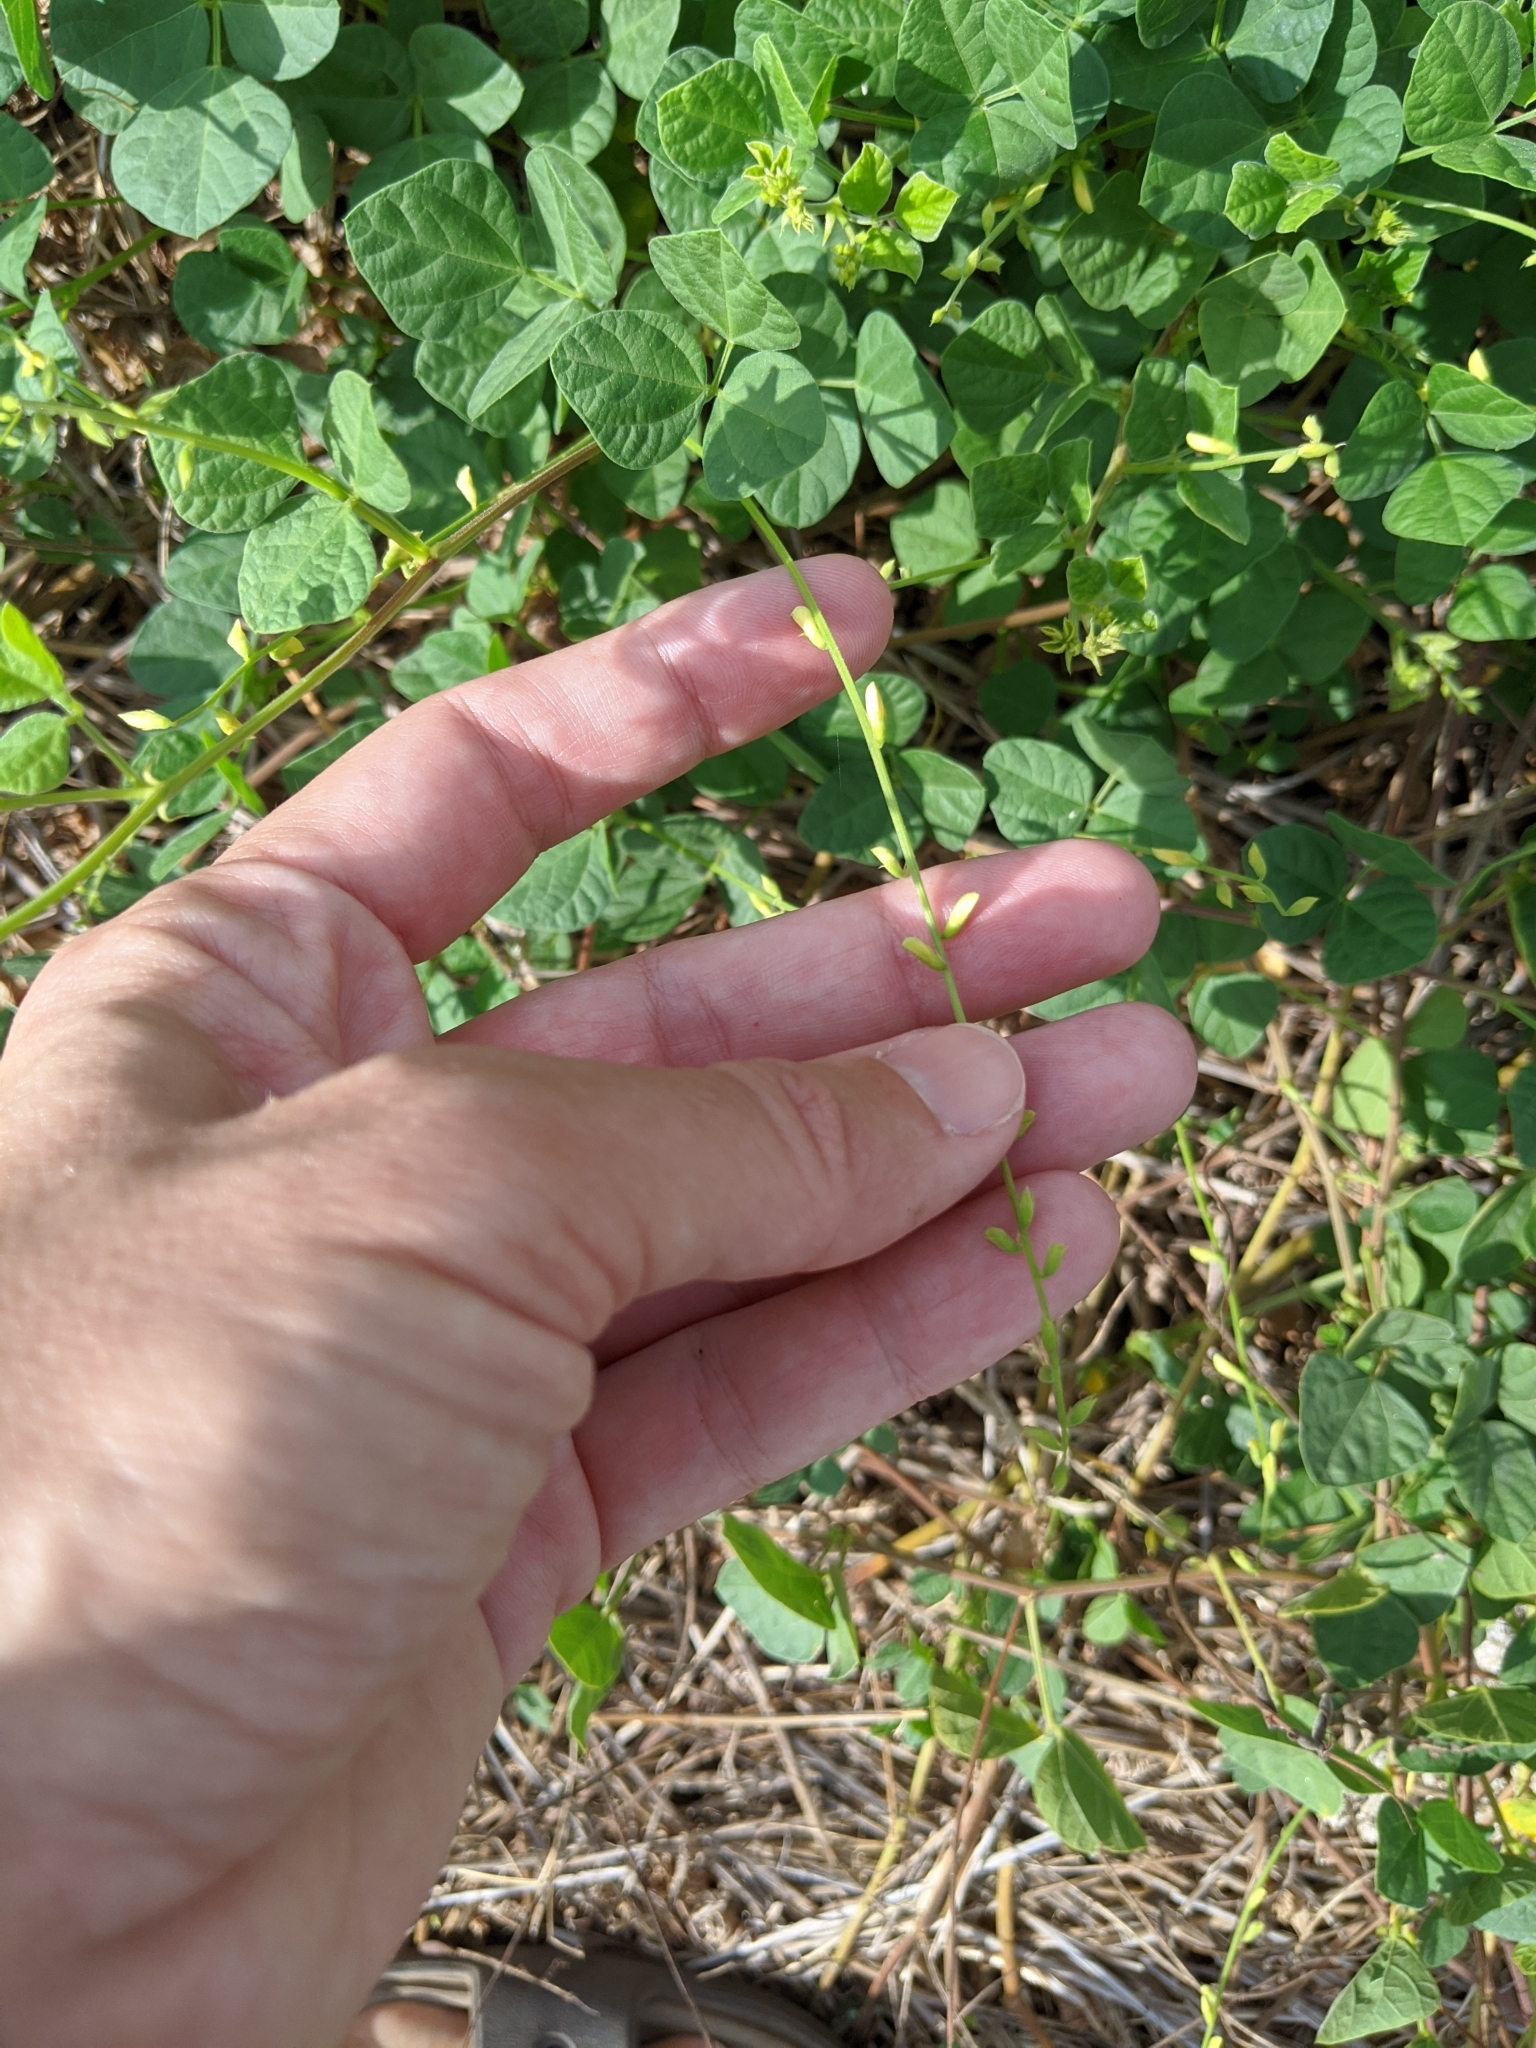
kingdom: Plantae
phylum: Tracheophyta
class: Magnoliopsida
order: Fabales
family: Fabaceae
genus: Rhynchosia
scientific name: Rhynchosia minima
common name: Least snoutbean
